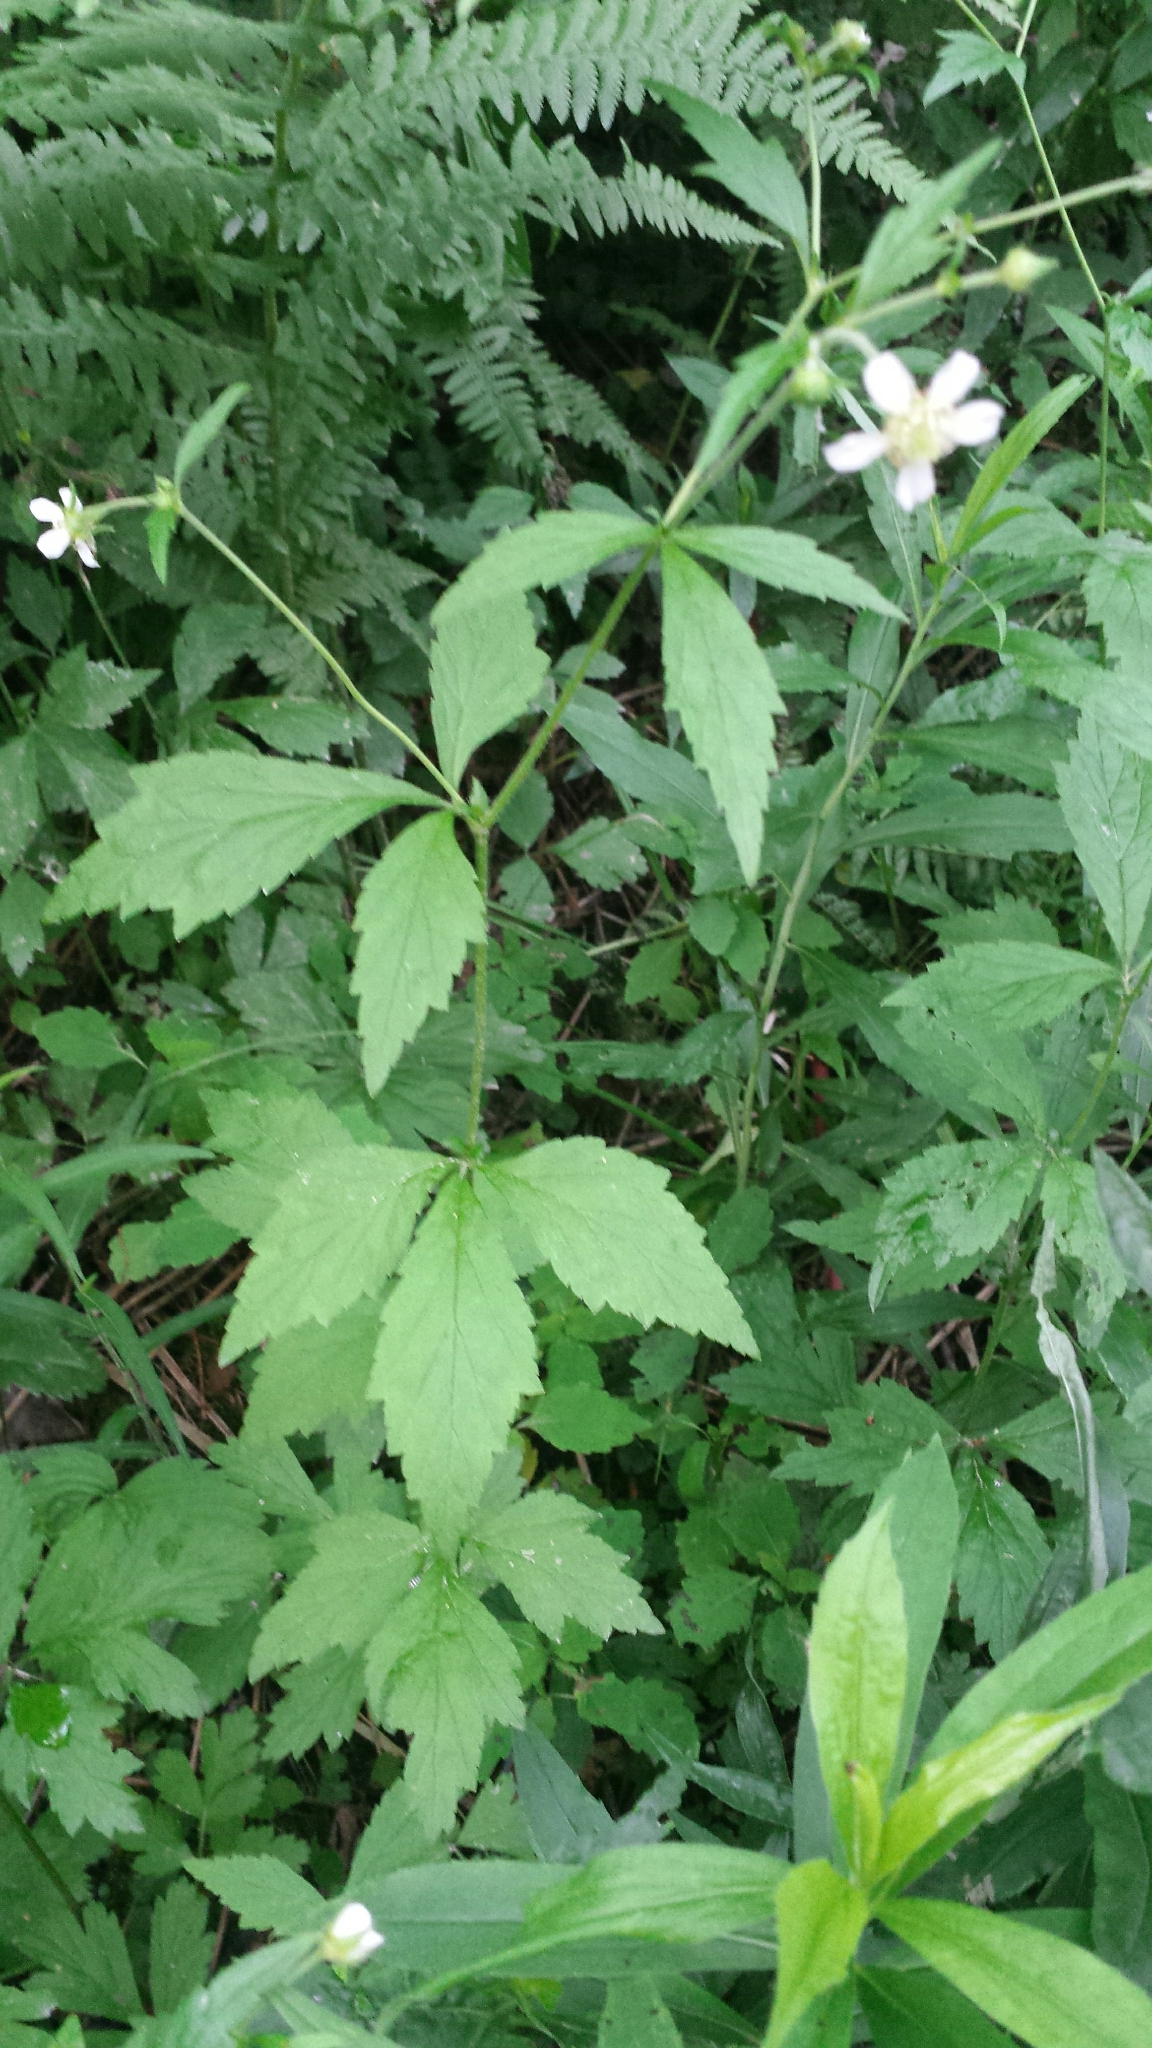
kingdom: Plantae
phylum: Tracheophyta
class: Magnoliopsida
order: Rosales
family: Rosaceae
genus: Geum
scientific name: Geum canadense
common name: White avens
